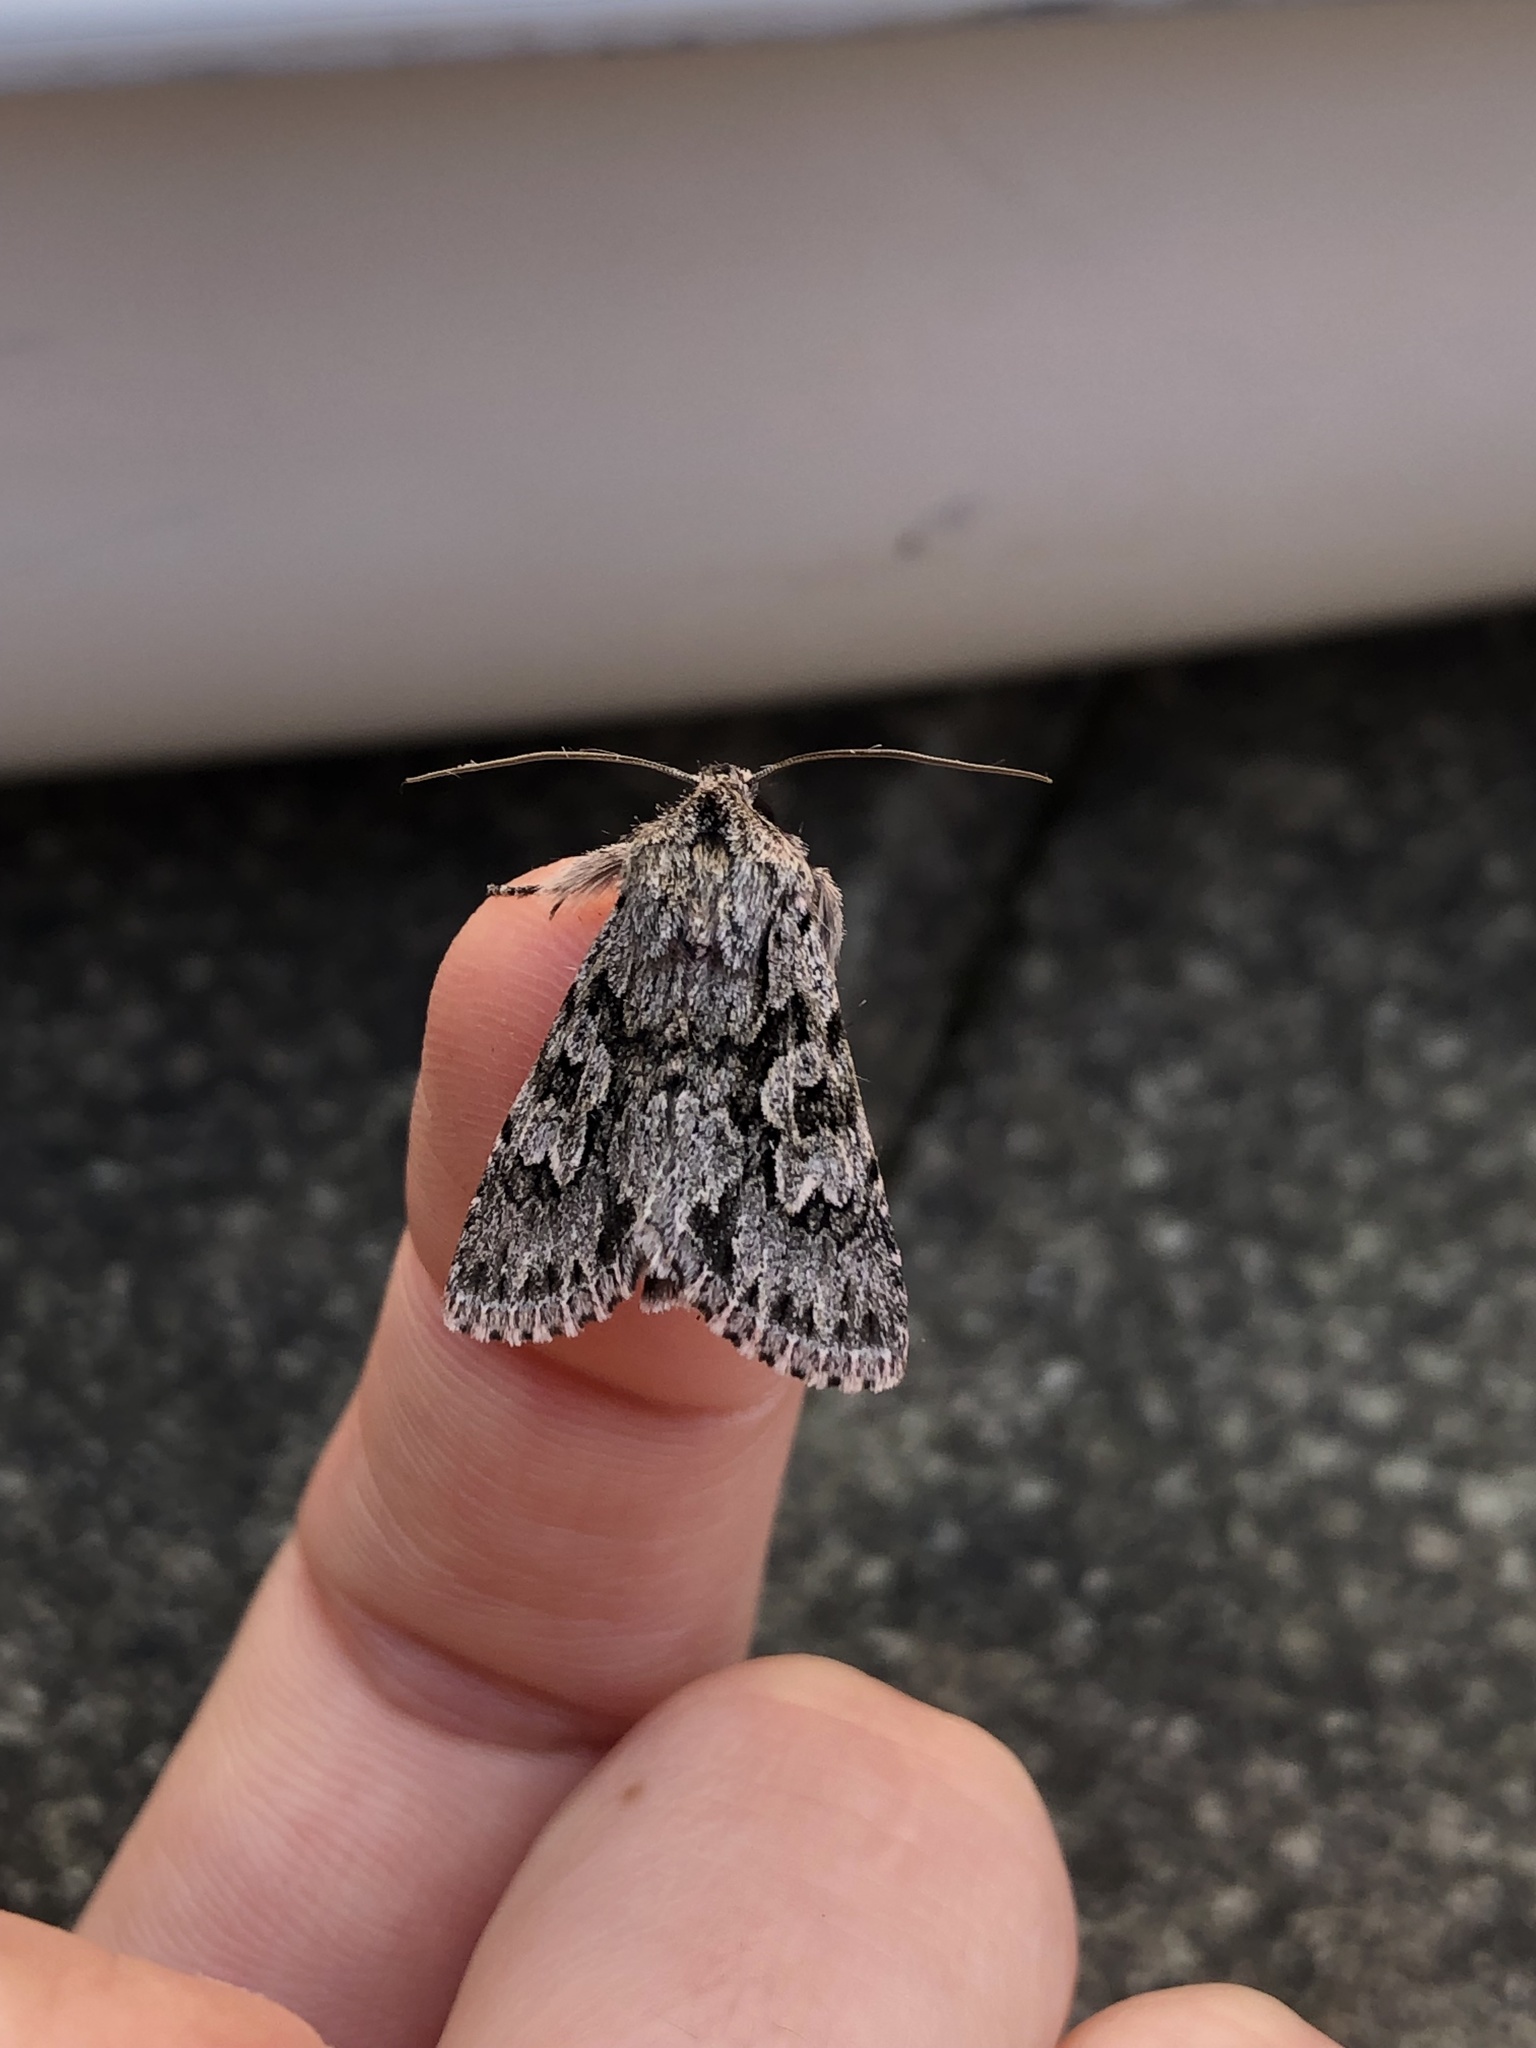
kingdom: Animalia
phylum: Arthropoda
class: Insecta
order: Lepidoptera
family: Noctuidae
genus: Xylocampa
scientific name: Xylocampa areola
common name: Early grey
